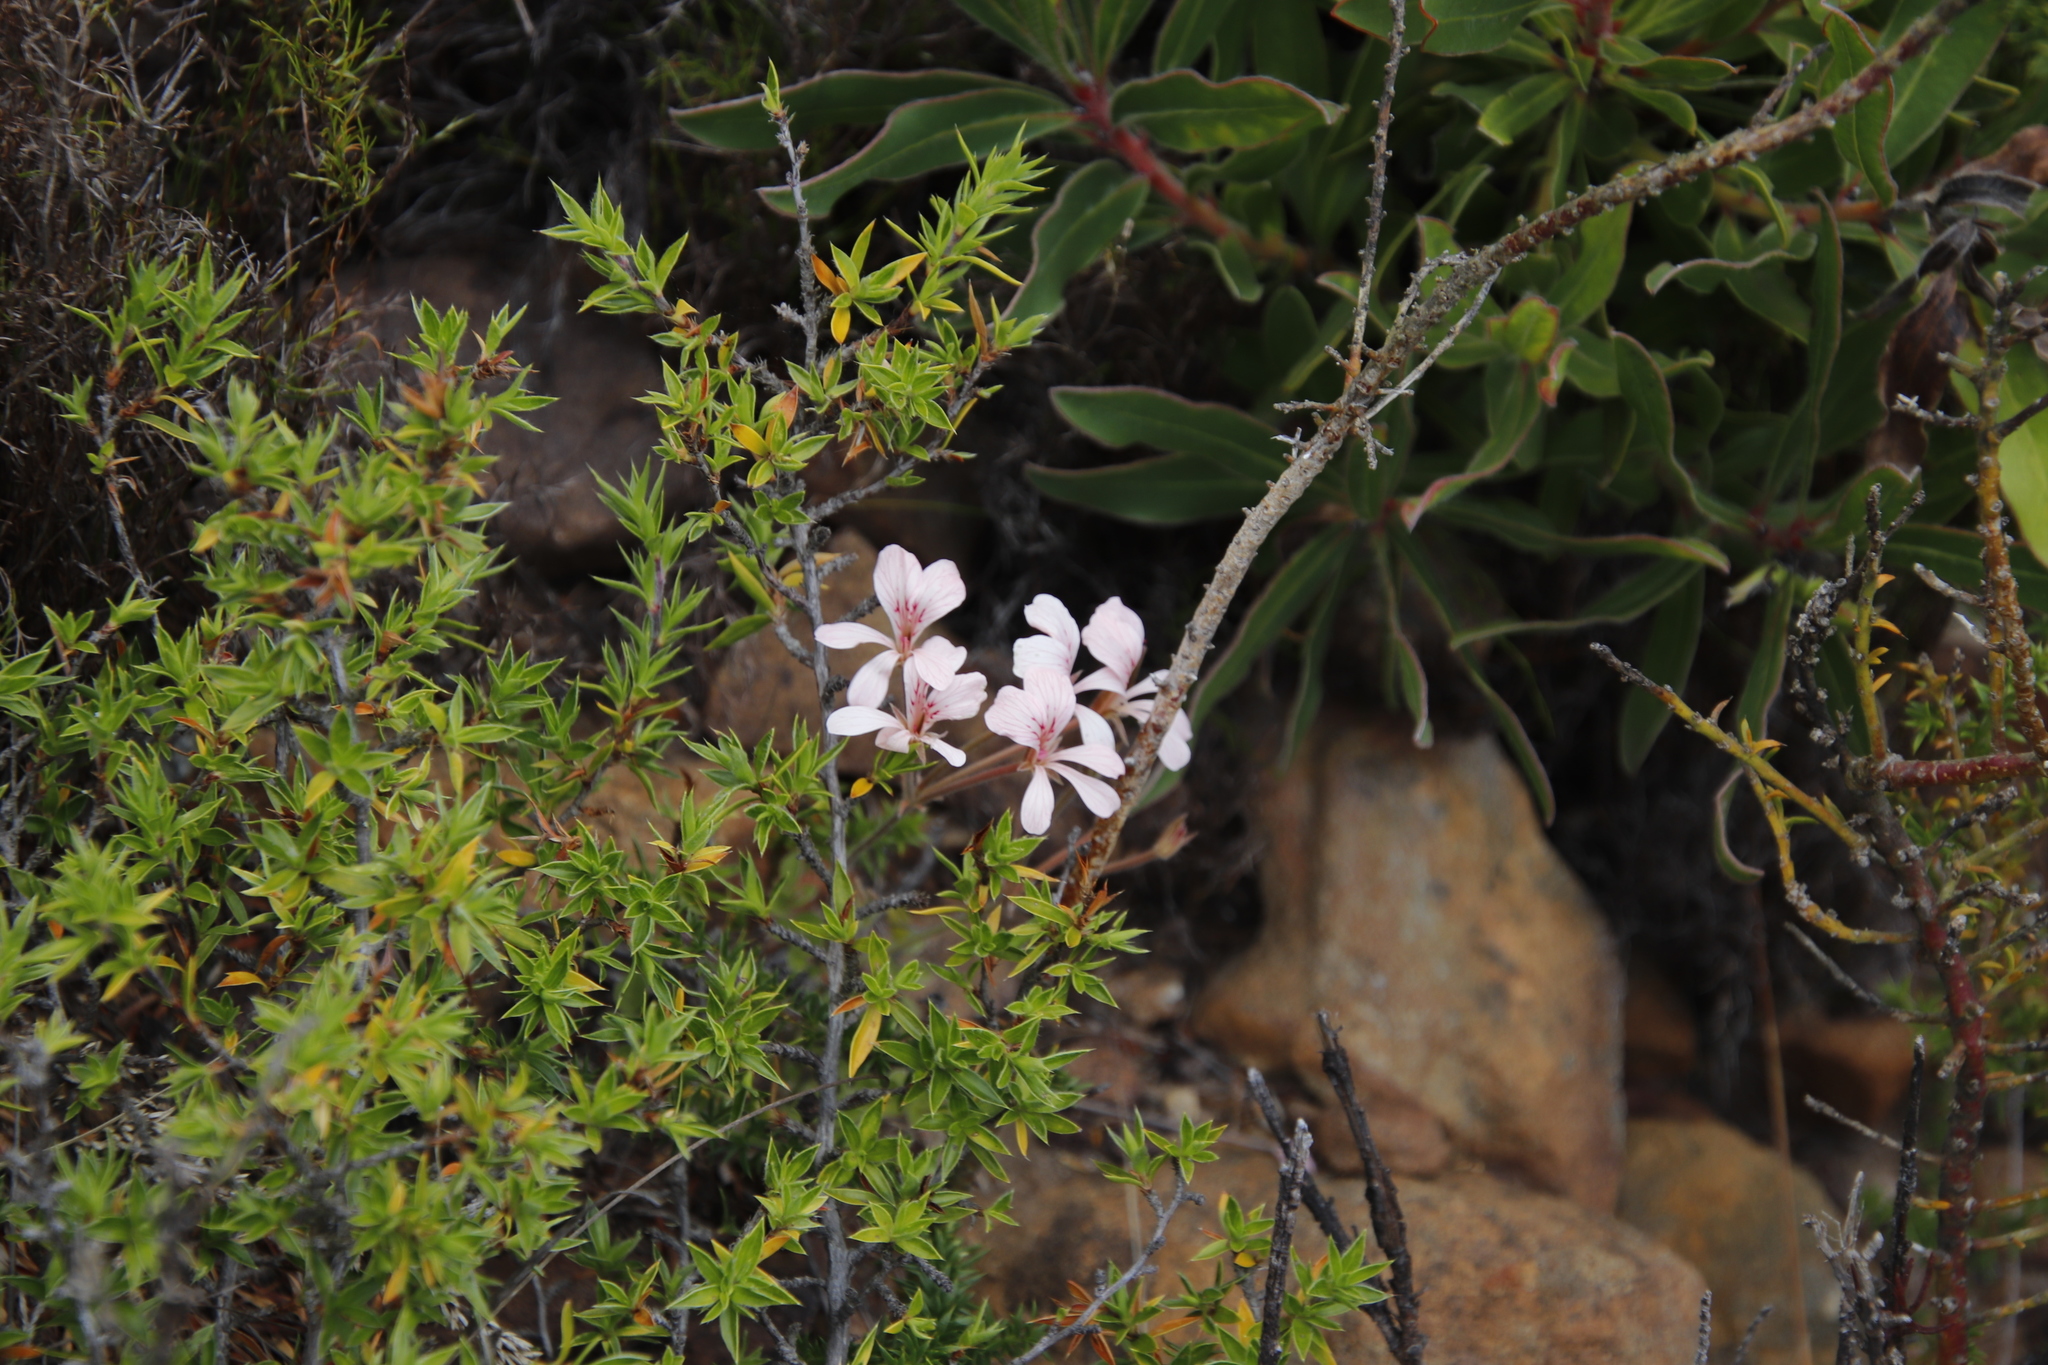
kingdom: Plantae
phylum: Tracheophyta
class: Magnoliopsida
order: Geraniales
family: Geraniaceae
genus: Pelargonium
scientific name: Pelargonium pinnatum
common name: Pinnated pelargonium
